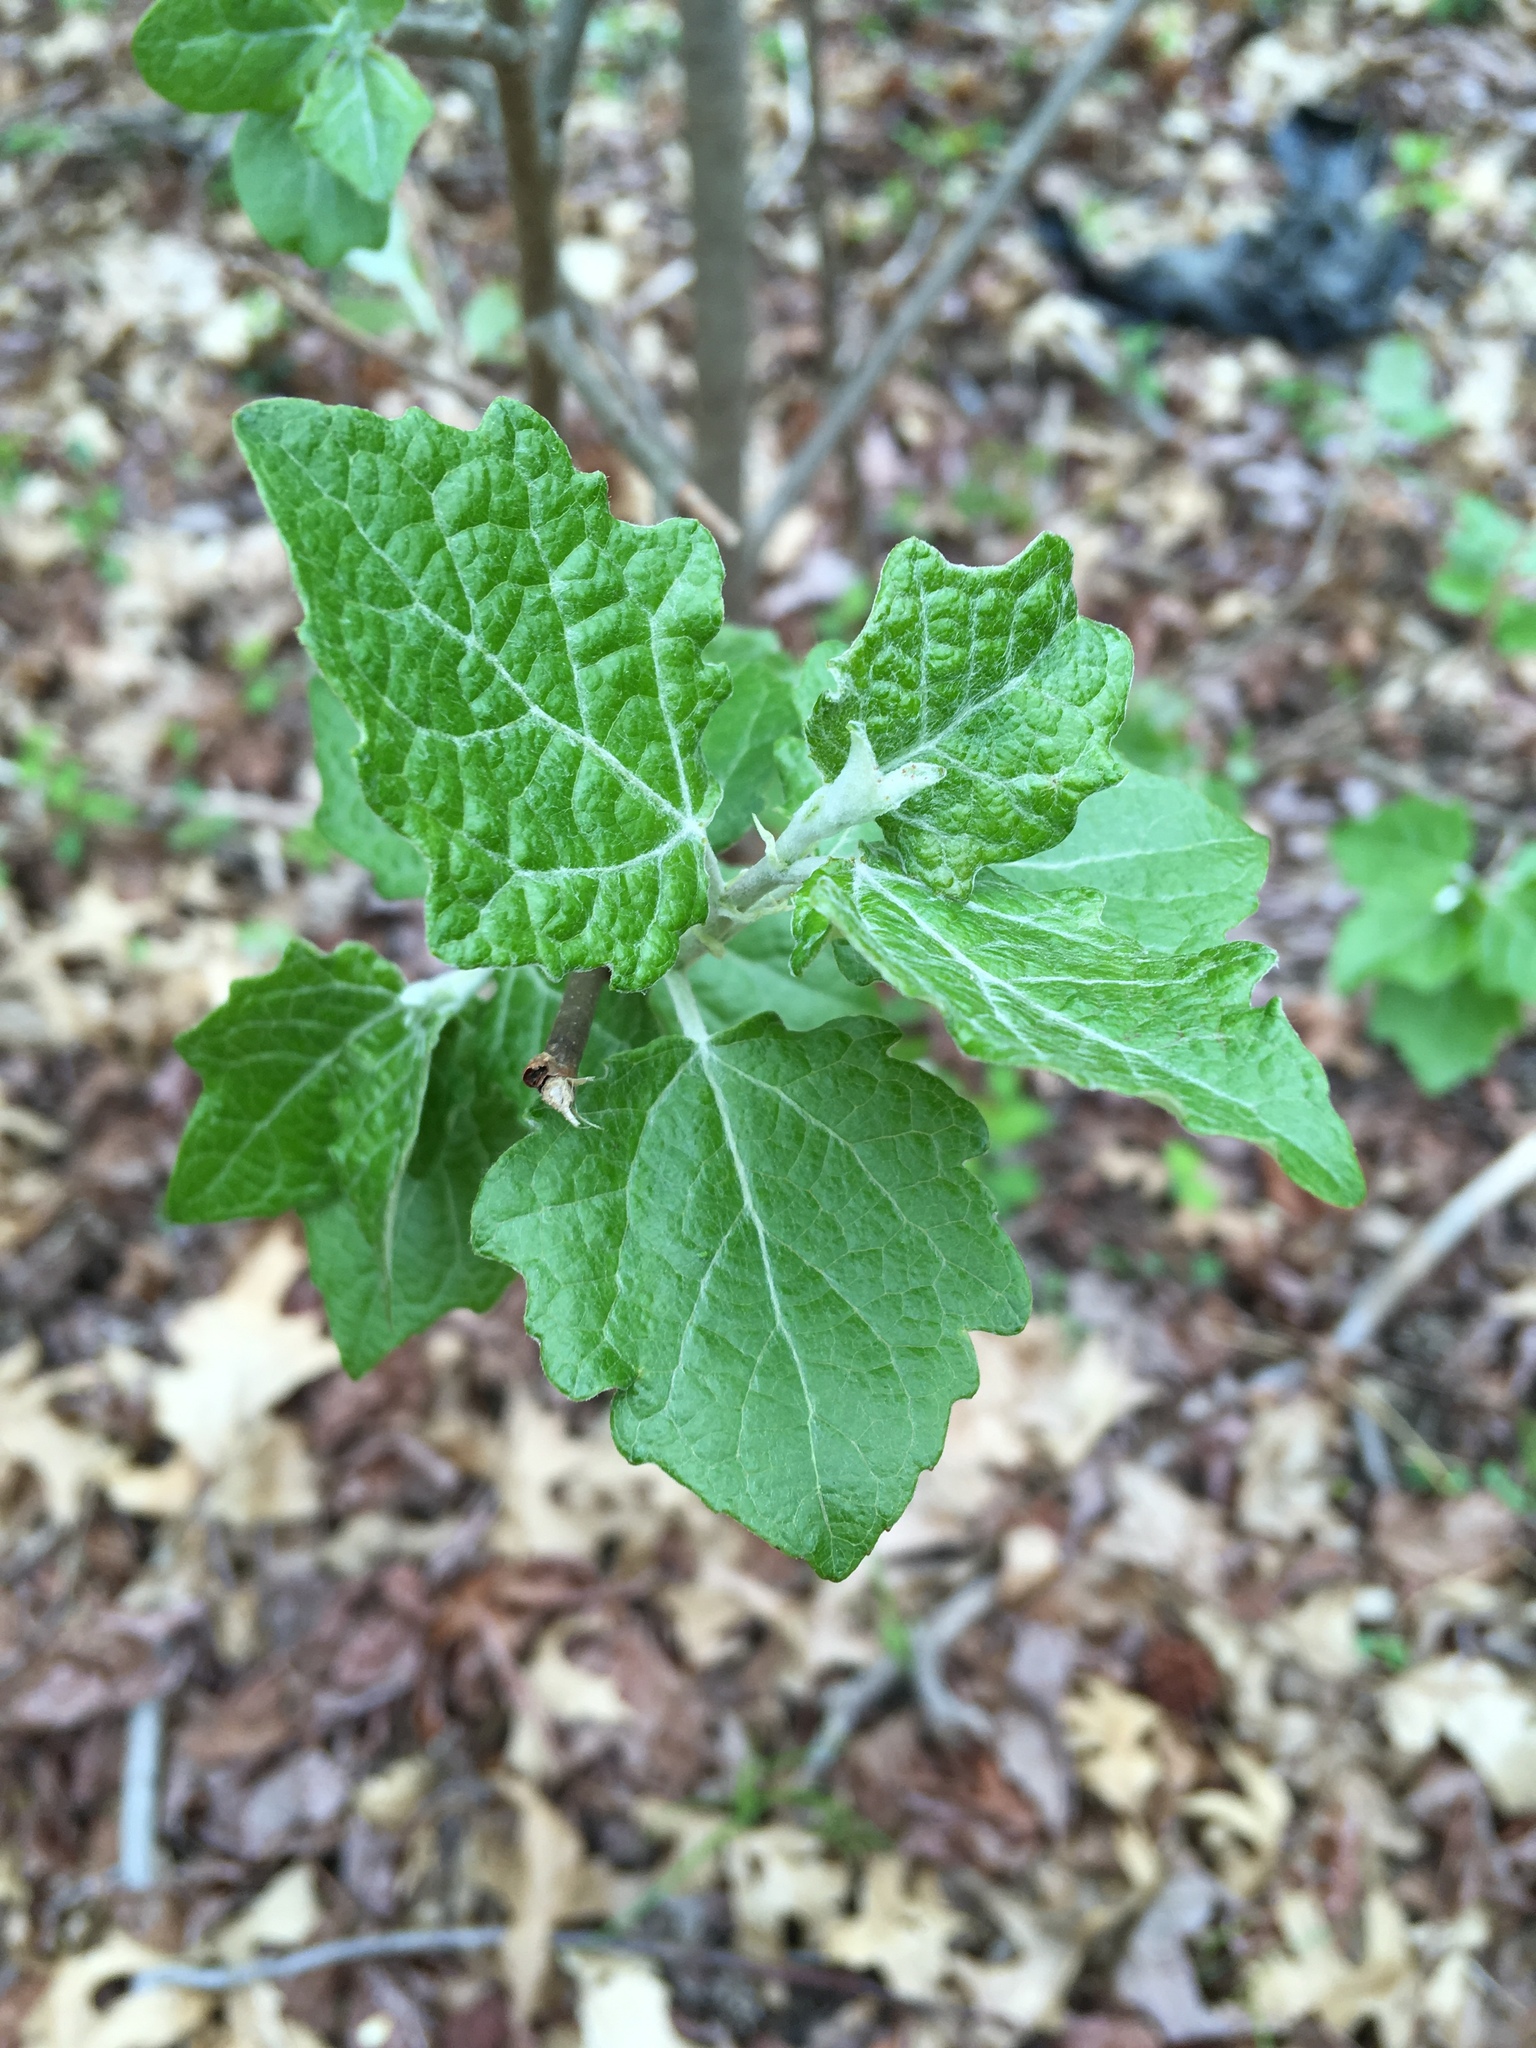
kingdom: Plantae
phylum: Tracheophyta
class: Magnoliopsida
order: Malpighiales
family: Salicaceae
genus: Populus
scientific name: Populus grandidentata
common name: Bigtooth aspen
